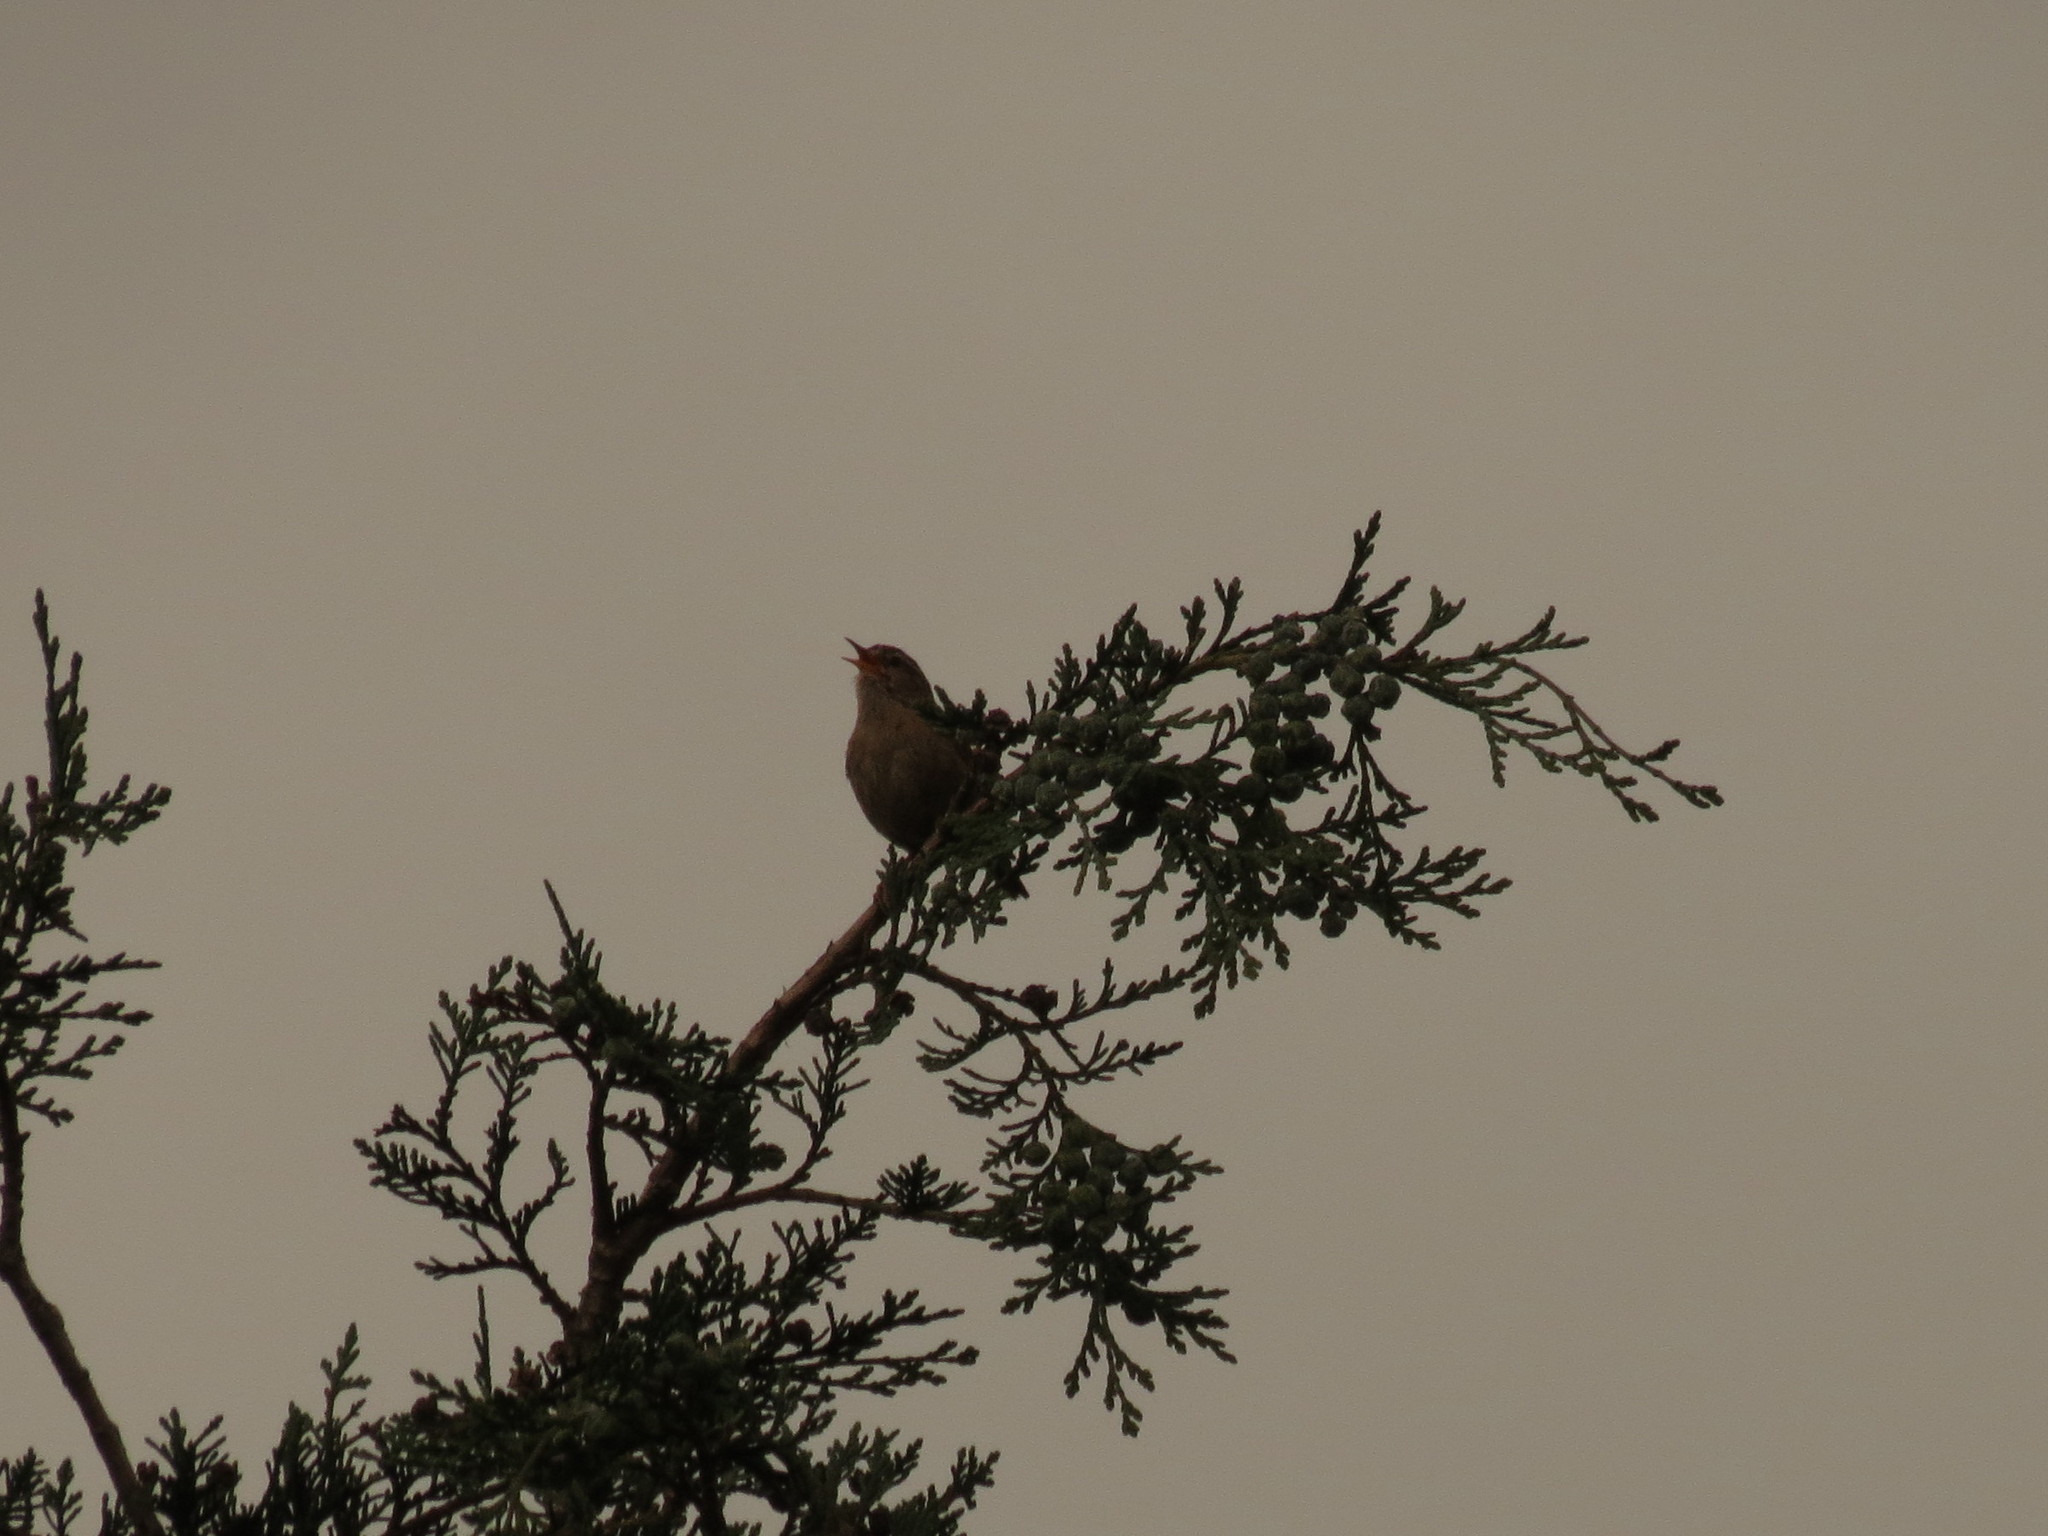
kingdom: Animalia
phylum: Chordata
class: Aves
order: Passeriformes
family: Troglodytidae
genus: Troglodytes
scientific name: Troglodytes troglodytes
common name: Eurasian wren
